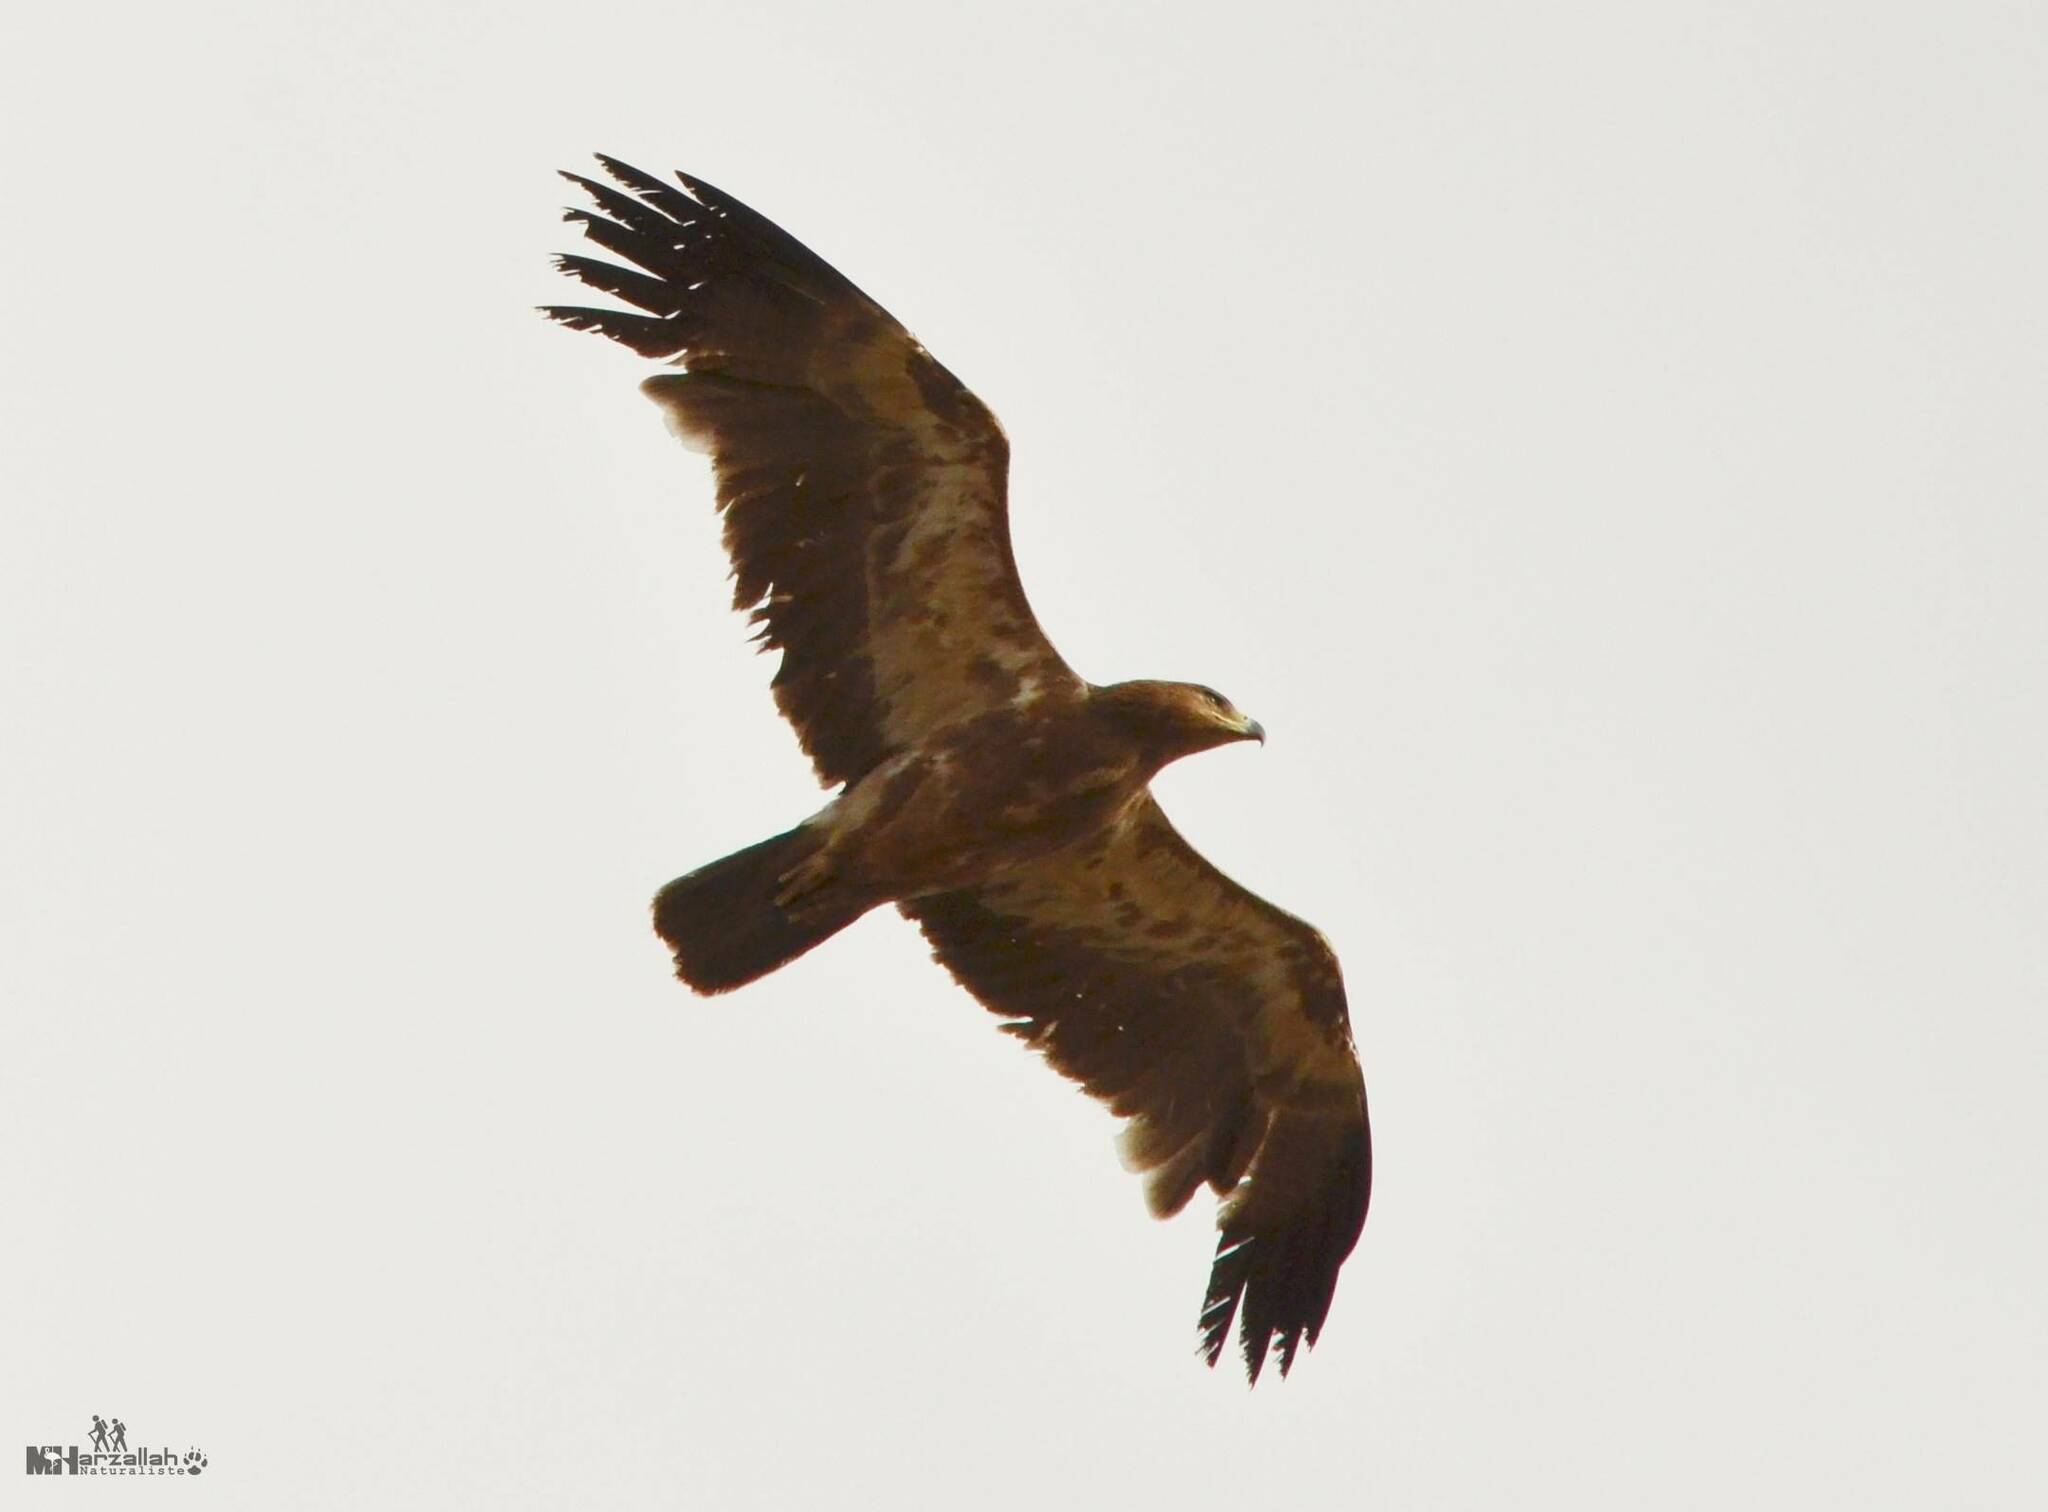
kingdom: Animalia
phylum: Chordata
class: Aves
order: Accipitriformes
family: Accipitridae
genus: Aquila
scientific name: Aquila rapax
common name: Tawny eagle
